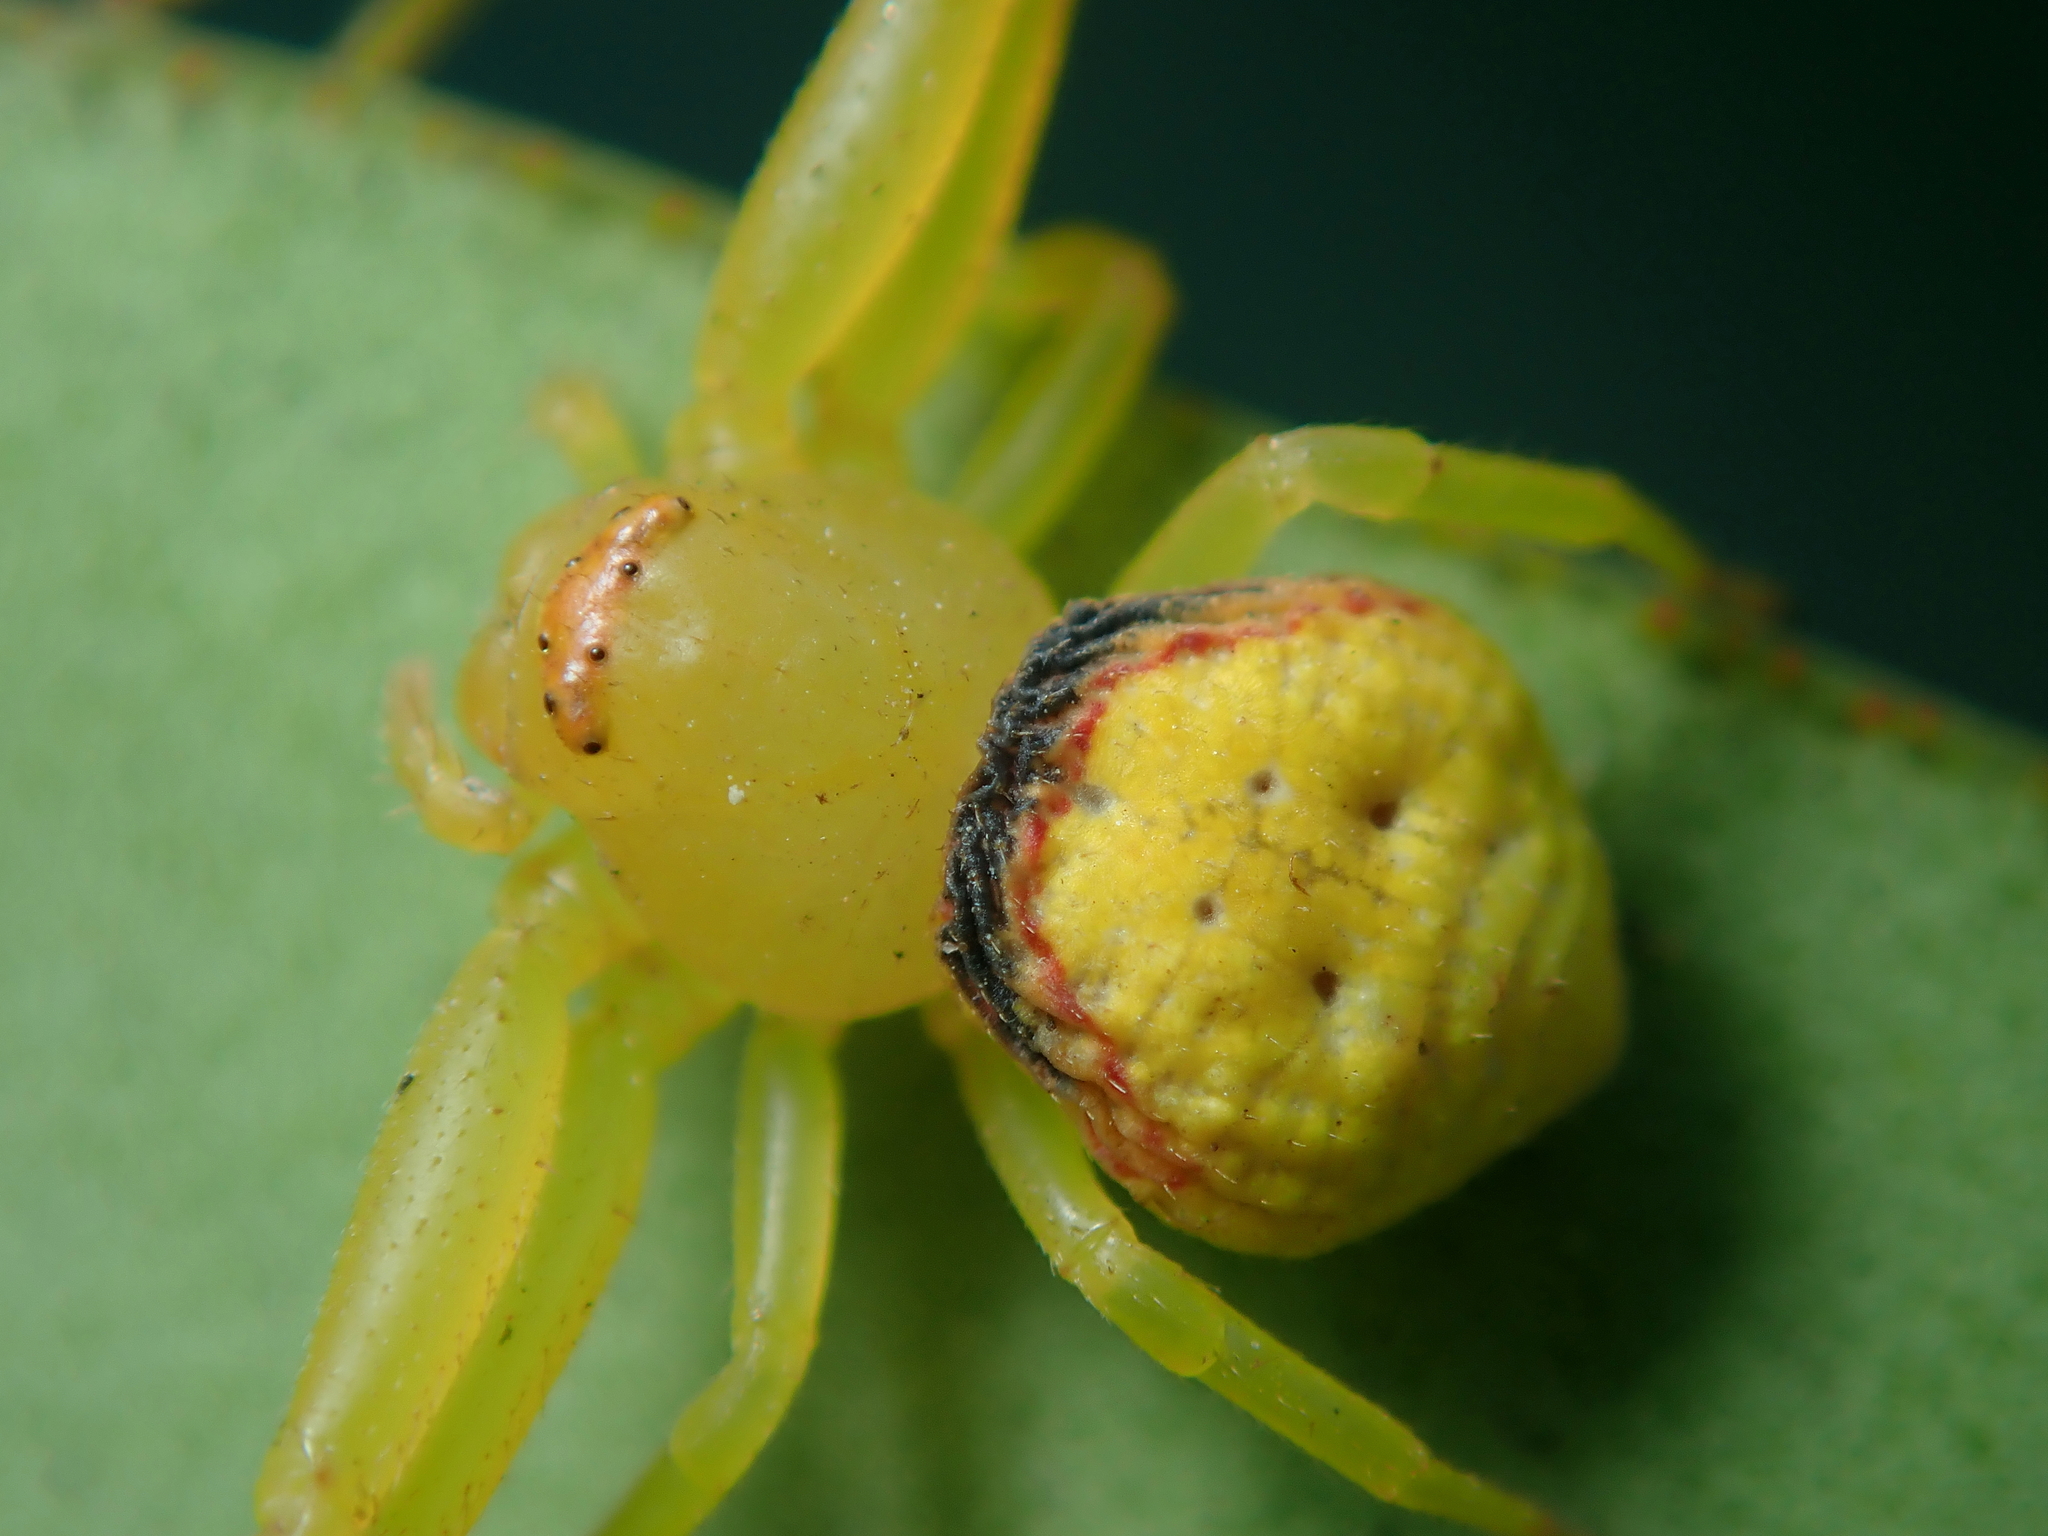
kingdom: Animalia
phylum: Arthropoda
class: Arachnida
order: Araneae
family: Thomisidae
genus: Misumenops
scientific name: Misumenops callinurus
